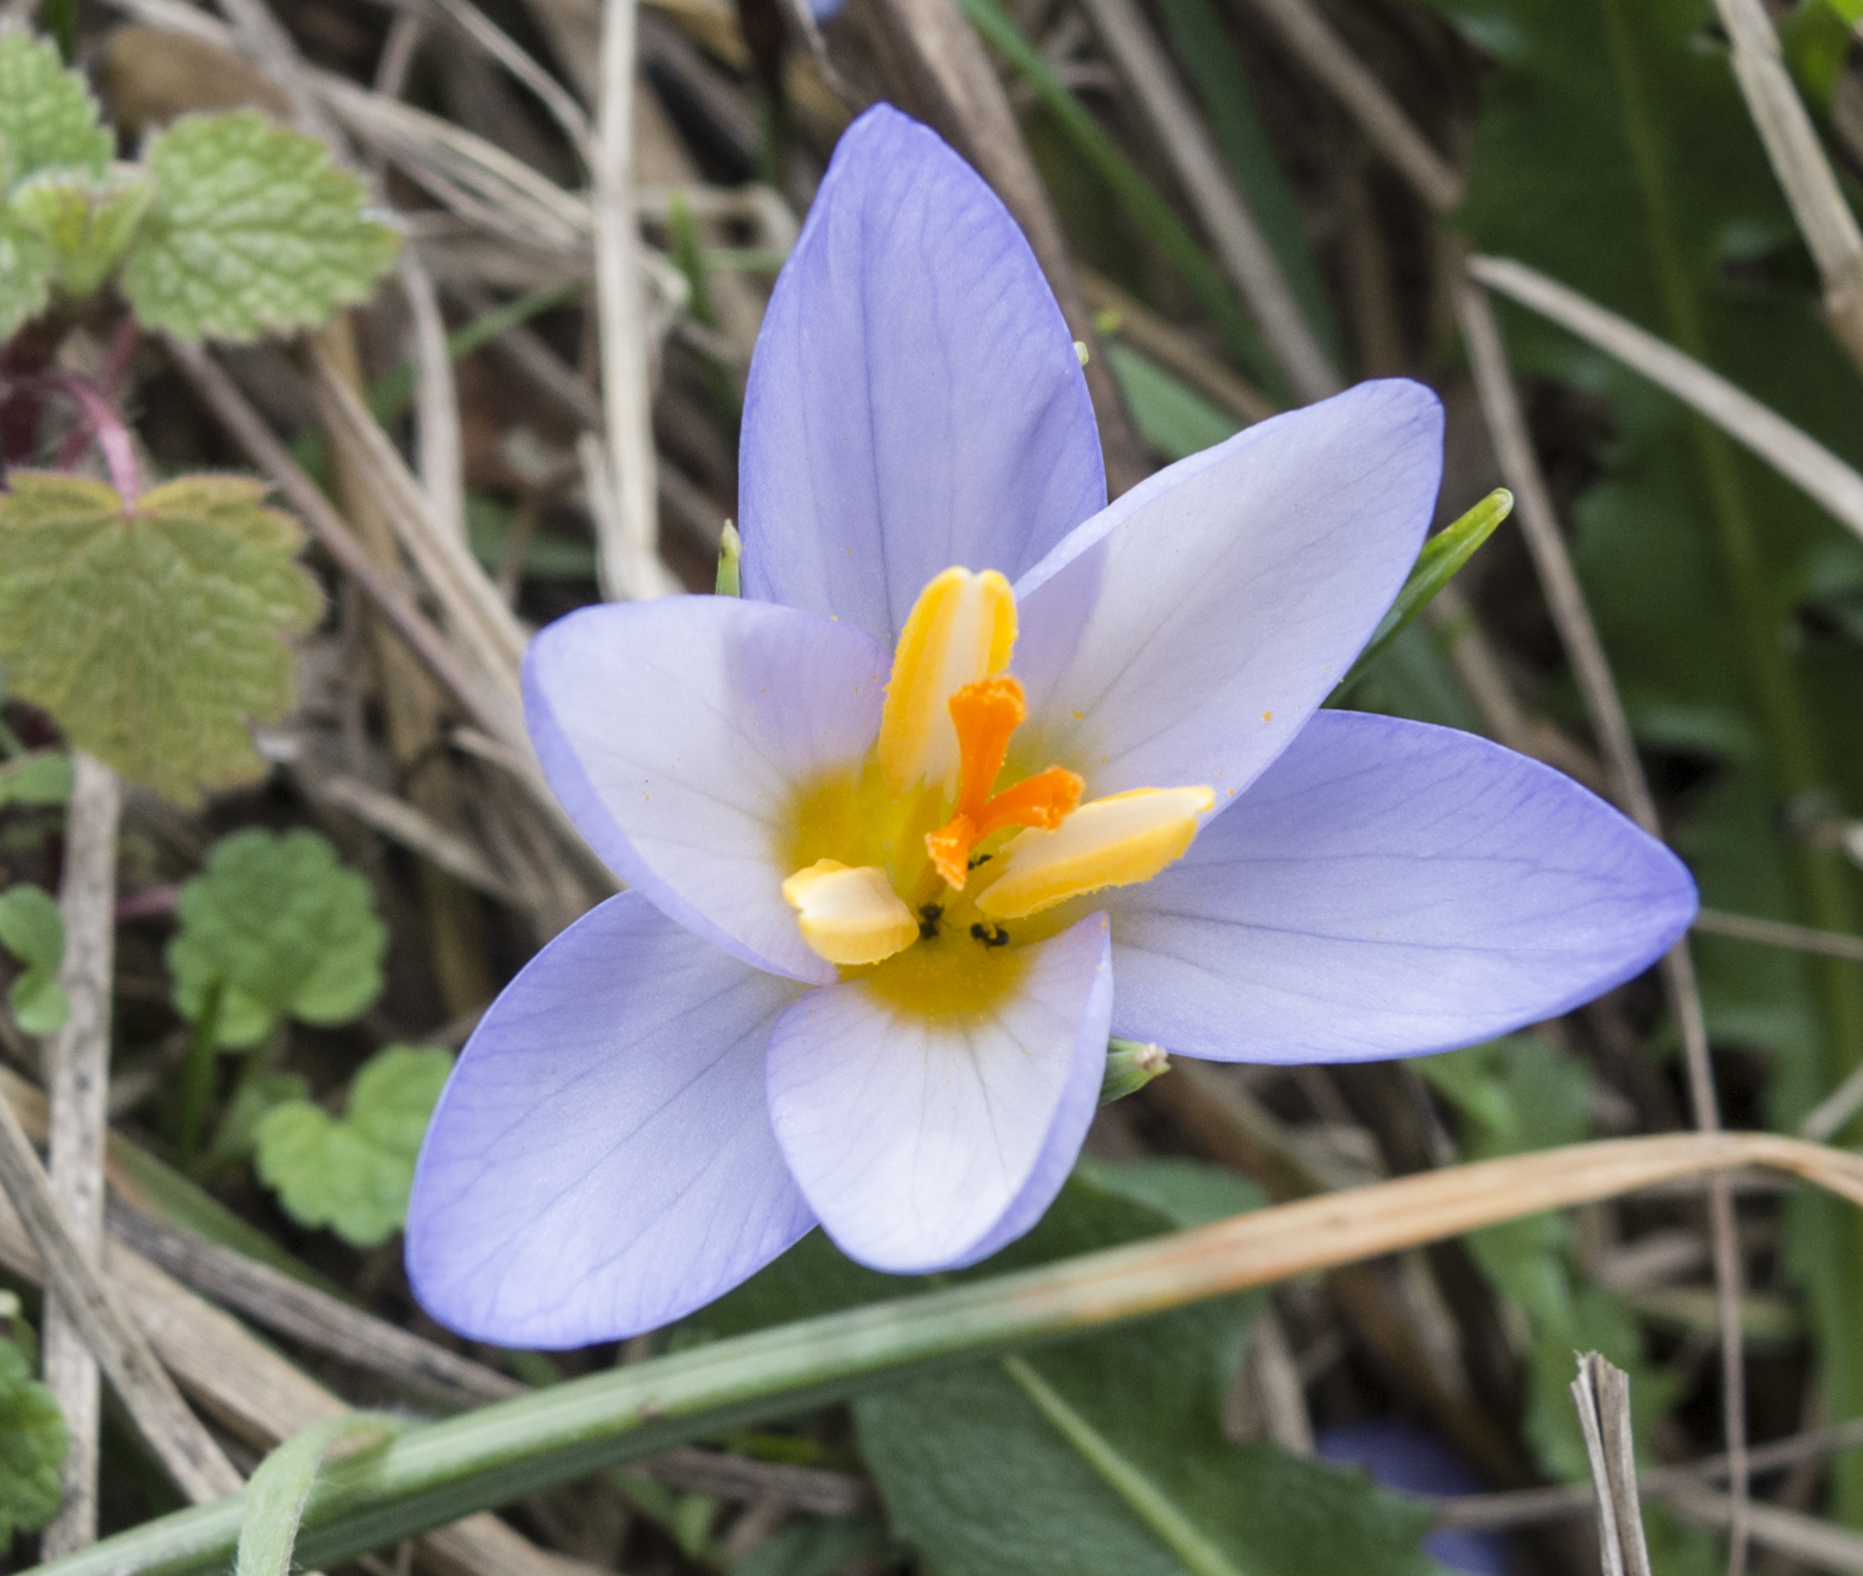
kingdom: Plantae
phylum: Tracheophyta
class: Liliopsida
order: Asparagales
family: Iridaceae
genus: Crocus
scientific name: Crocus adamioides
